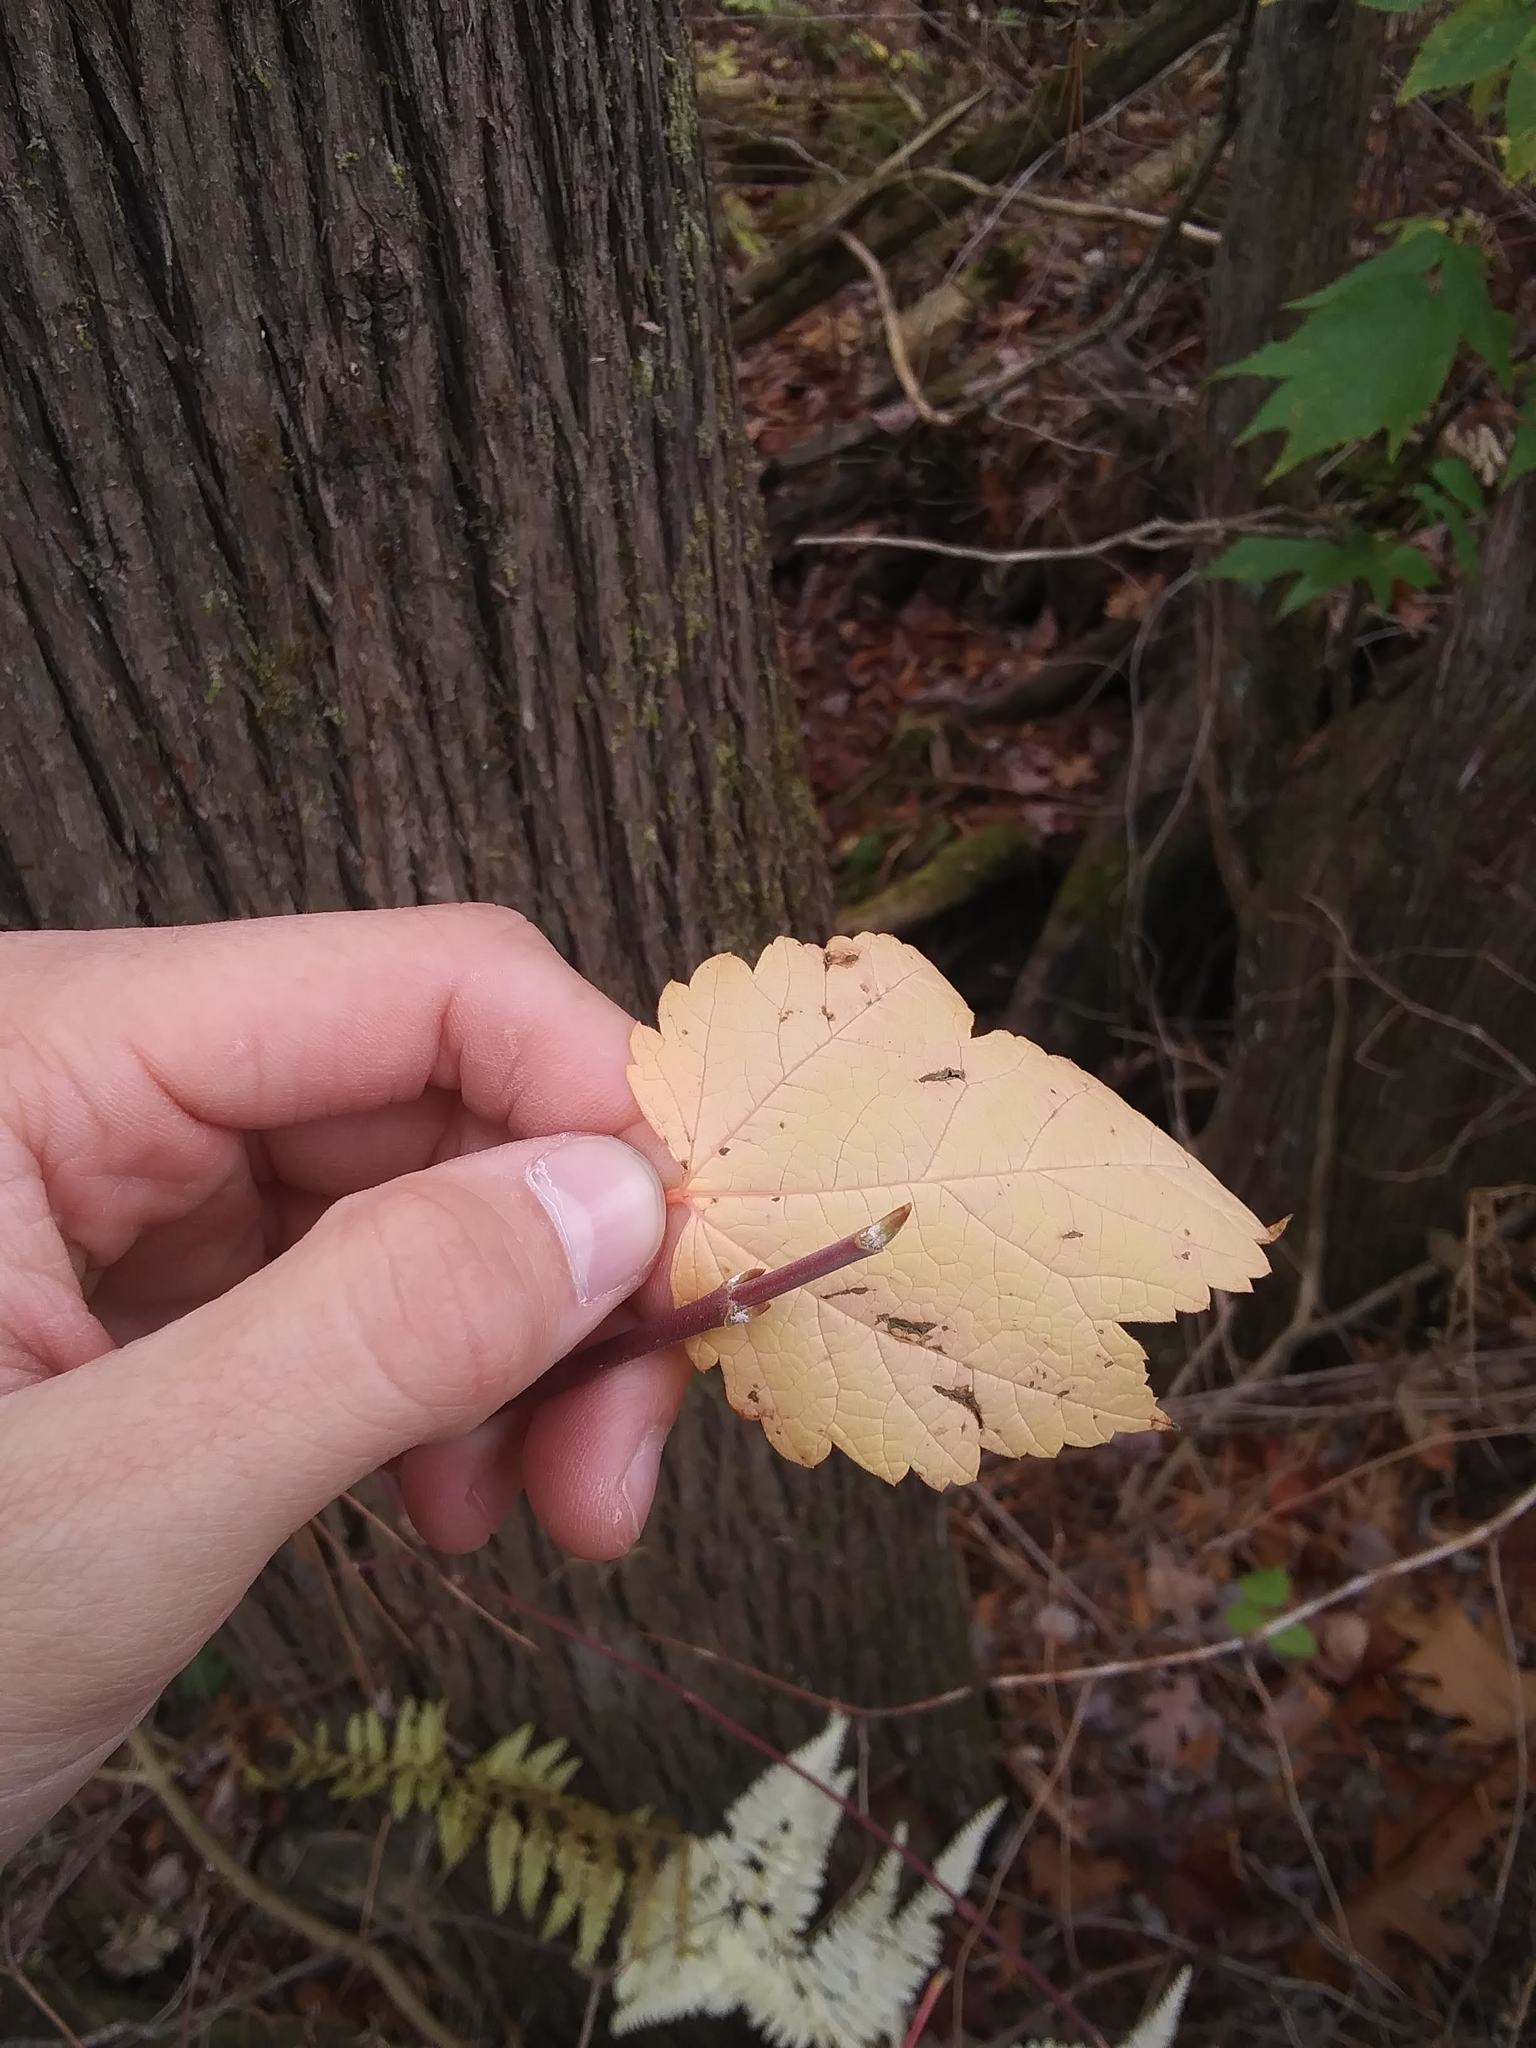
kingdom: Plantae
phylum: Tracheophyta
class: Magnoliopsida
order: Sapindales
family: Sapindaceae
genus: Acer
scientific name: Acer spicatum
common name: Mountain maple
